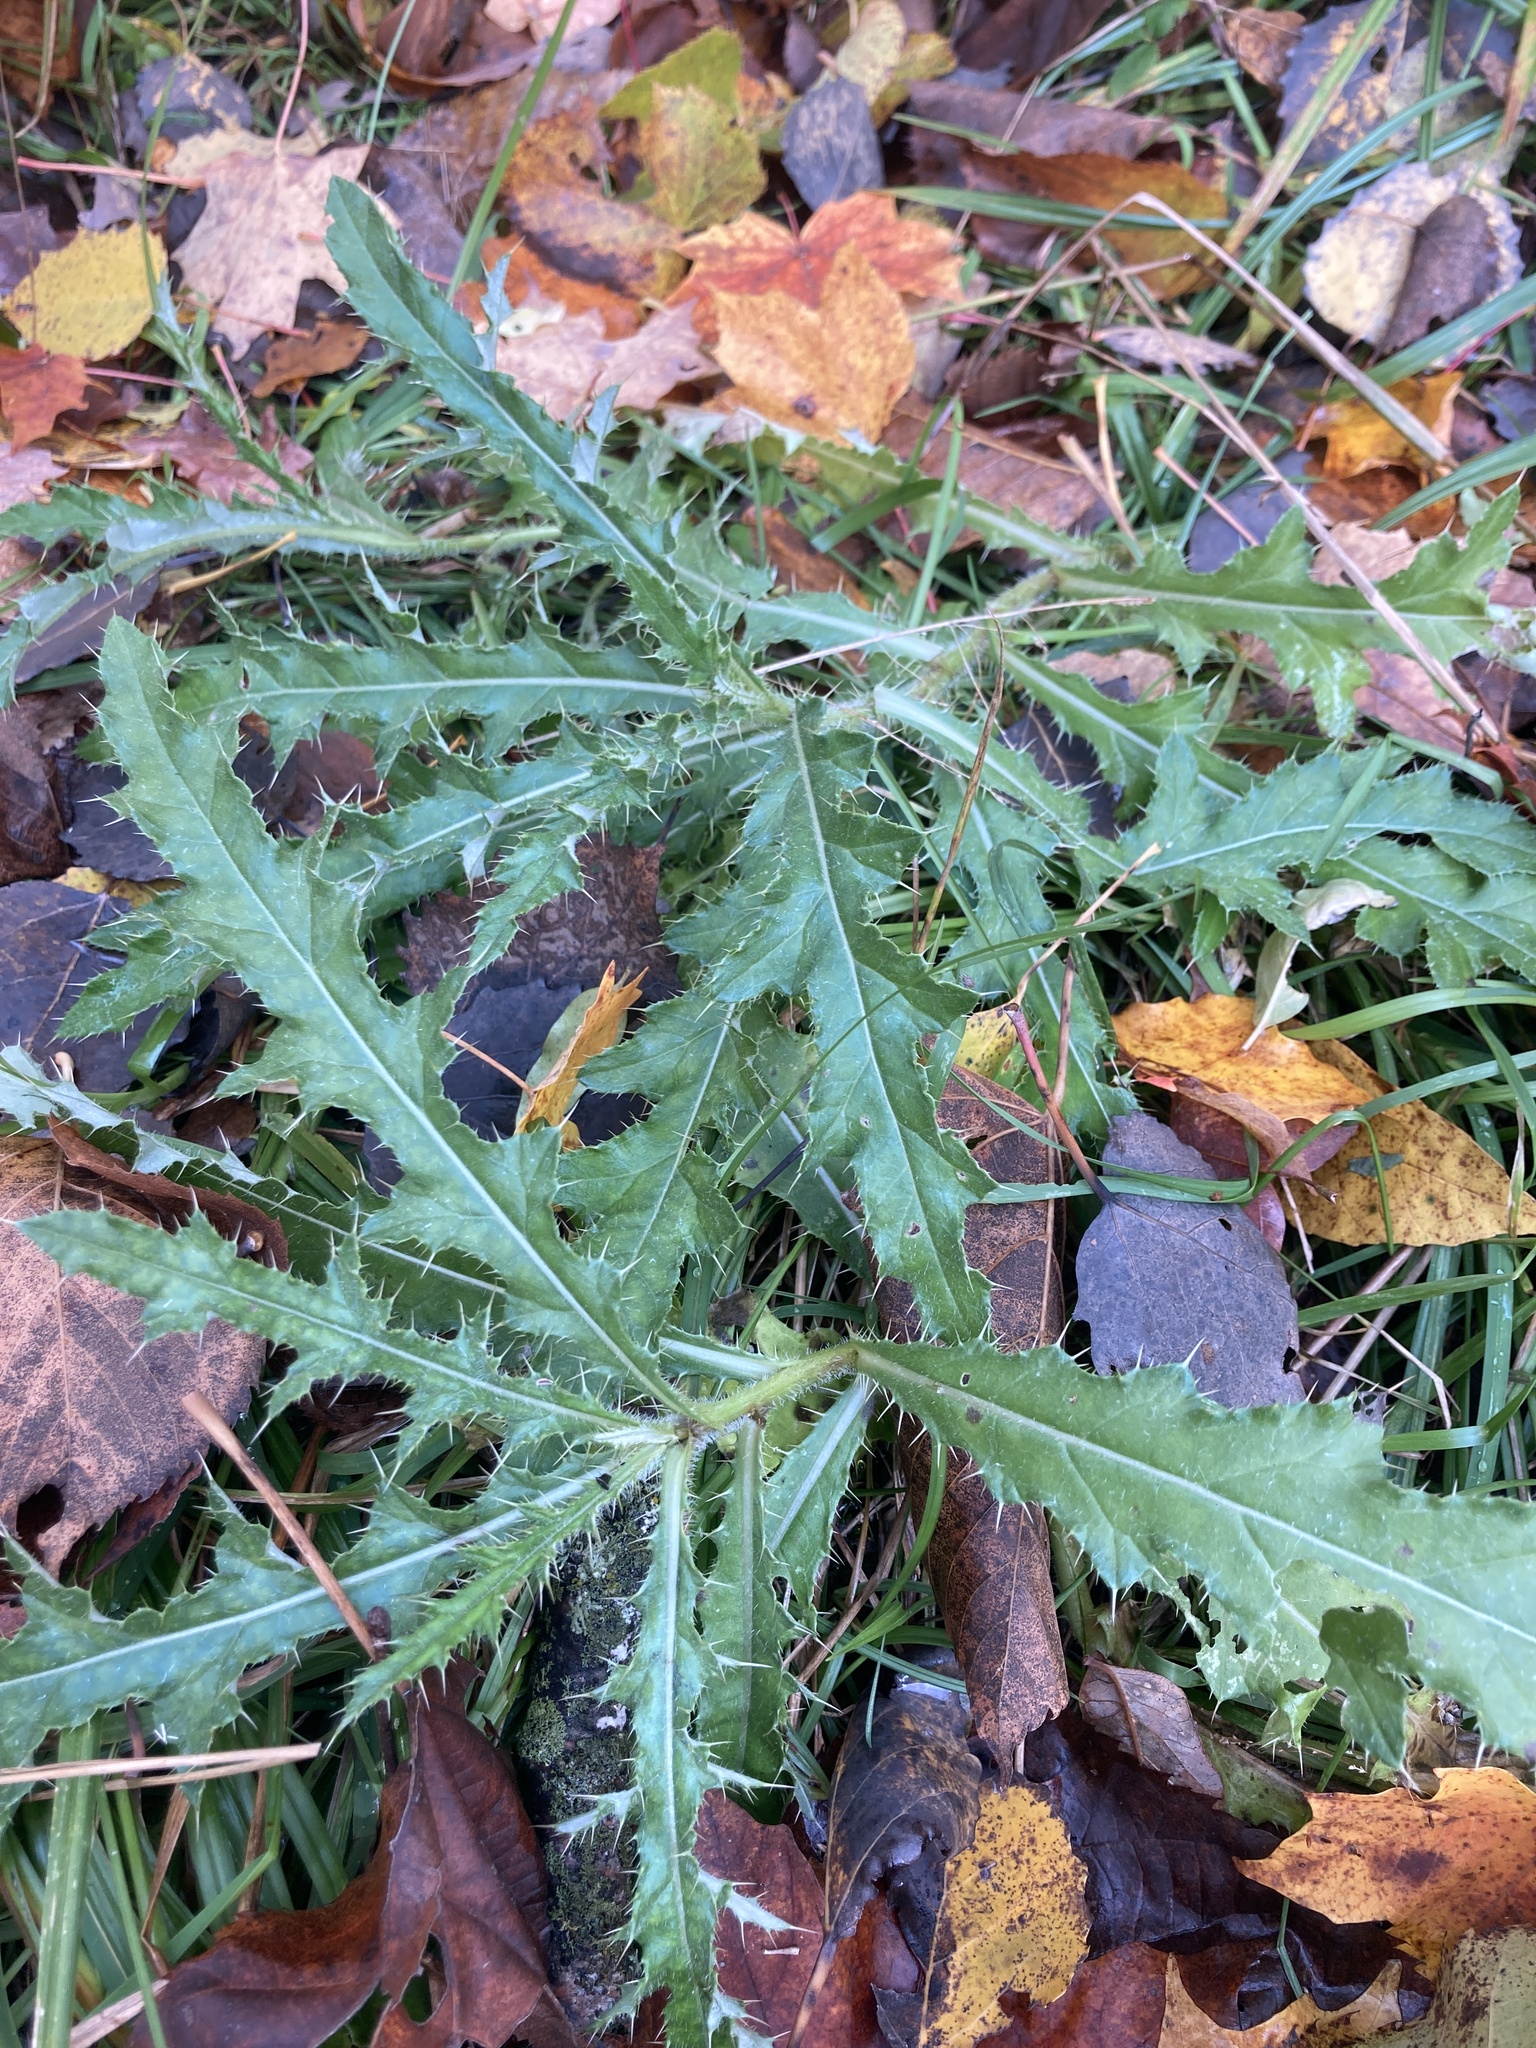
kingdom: Plantae
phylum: Tracheophyta
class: Magnoliopsida
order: Asterales
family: Asteraceae
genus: Cirsium
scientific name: Cirsium arvense
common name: Creeping thistle
